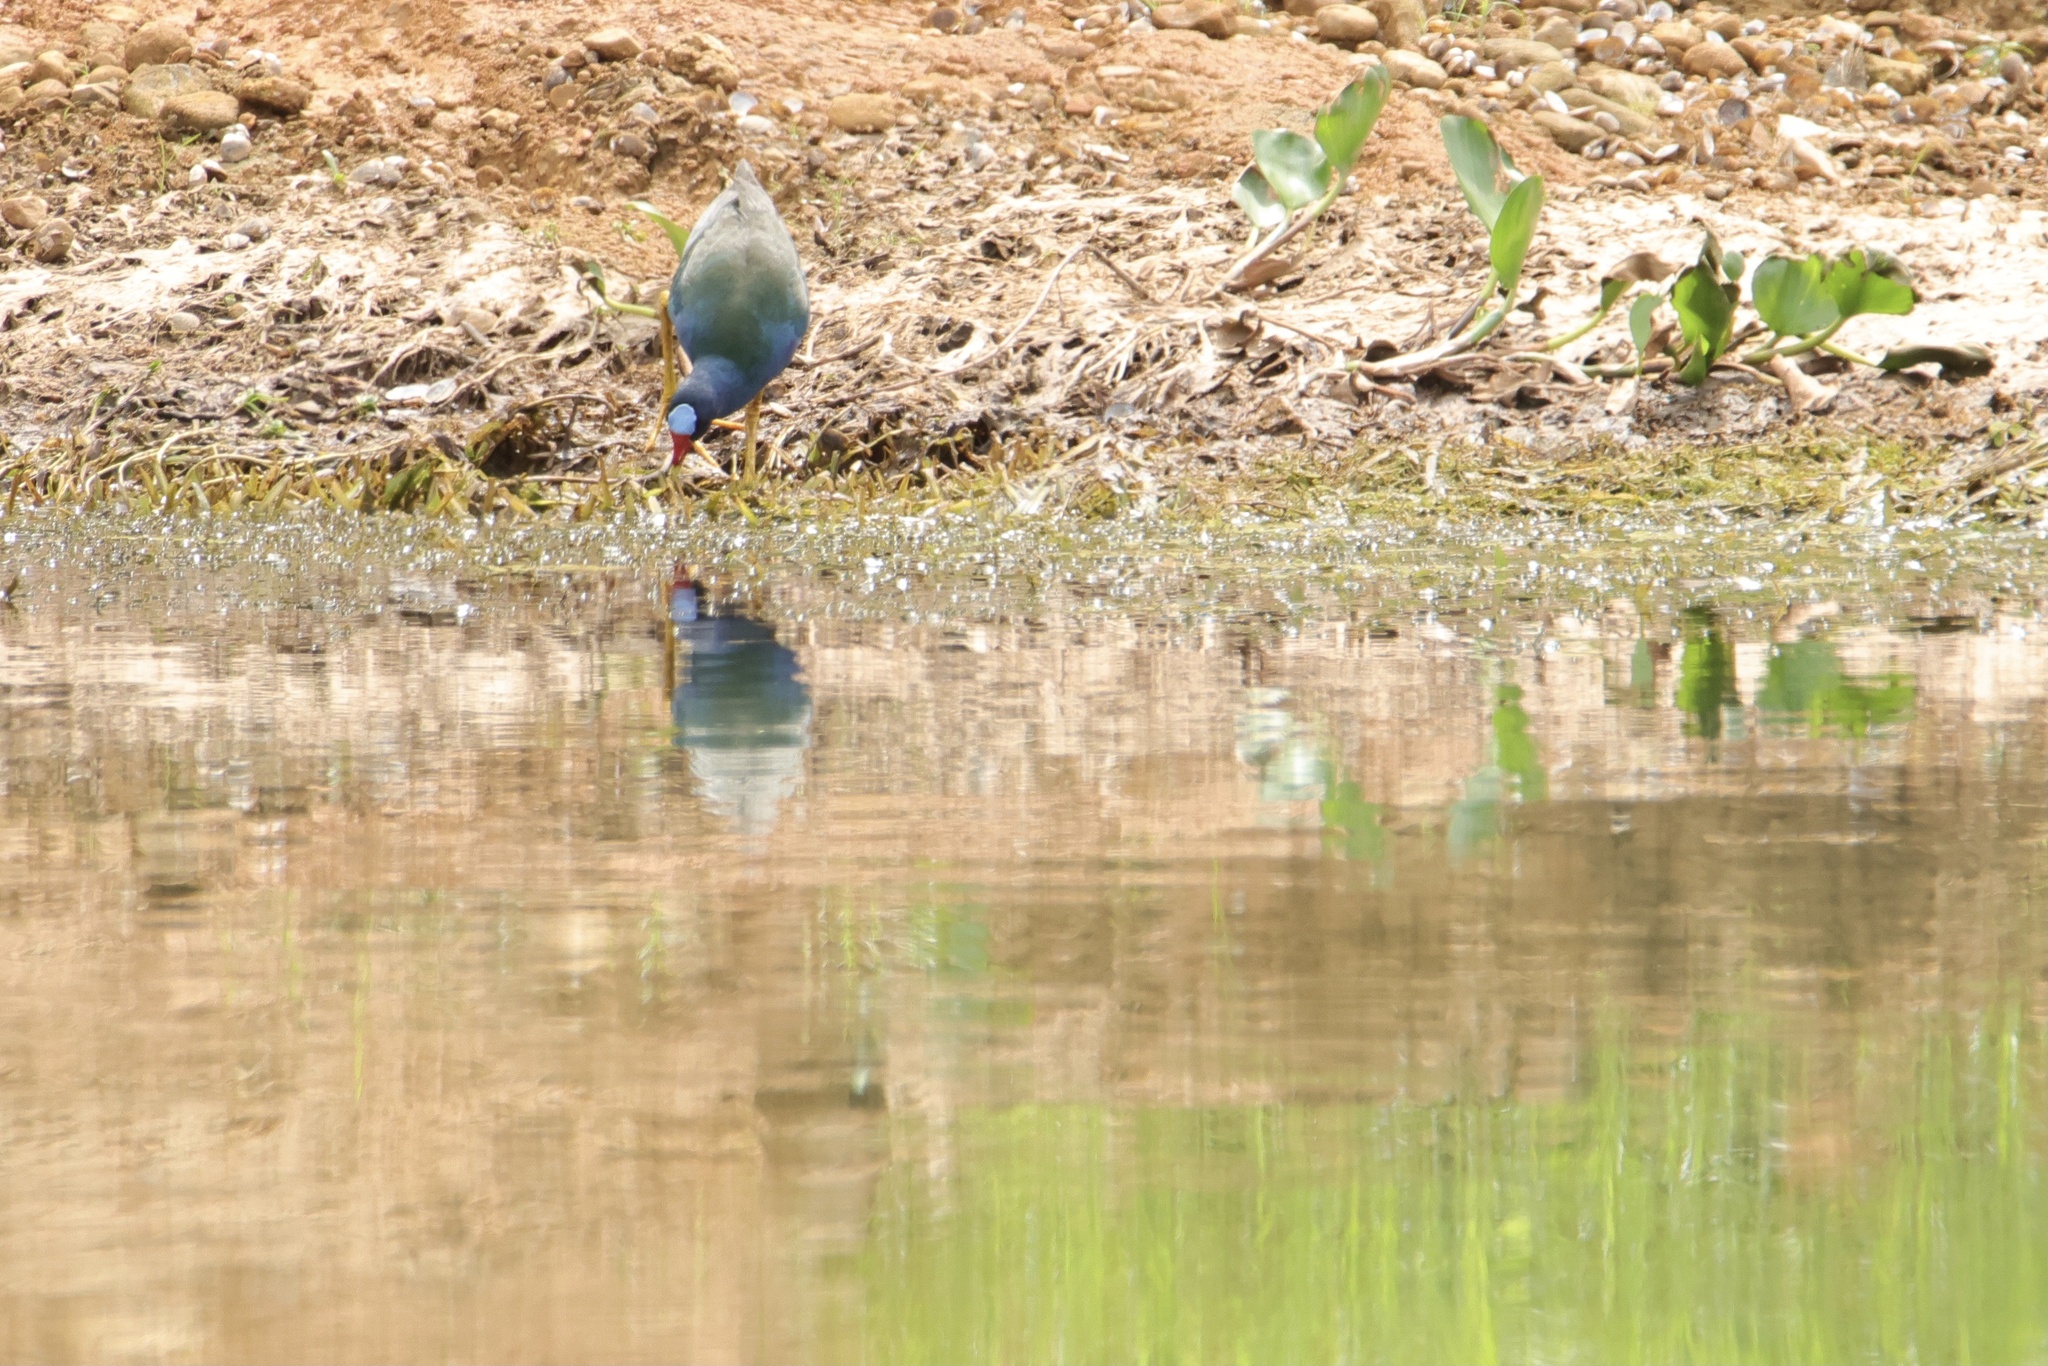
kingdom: Animalia
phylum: Chordata
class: Aves
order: Gruiformes
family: Rallidae
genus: Porphyrio
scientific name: Porphyrio martinica
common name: Purple gallinule
